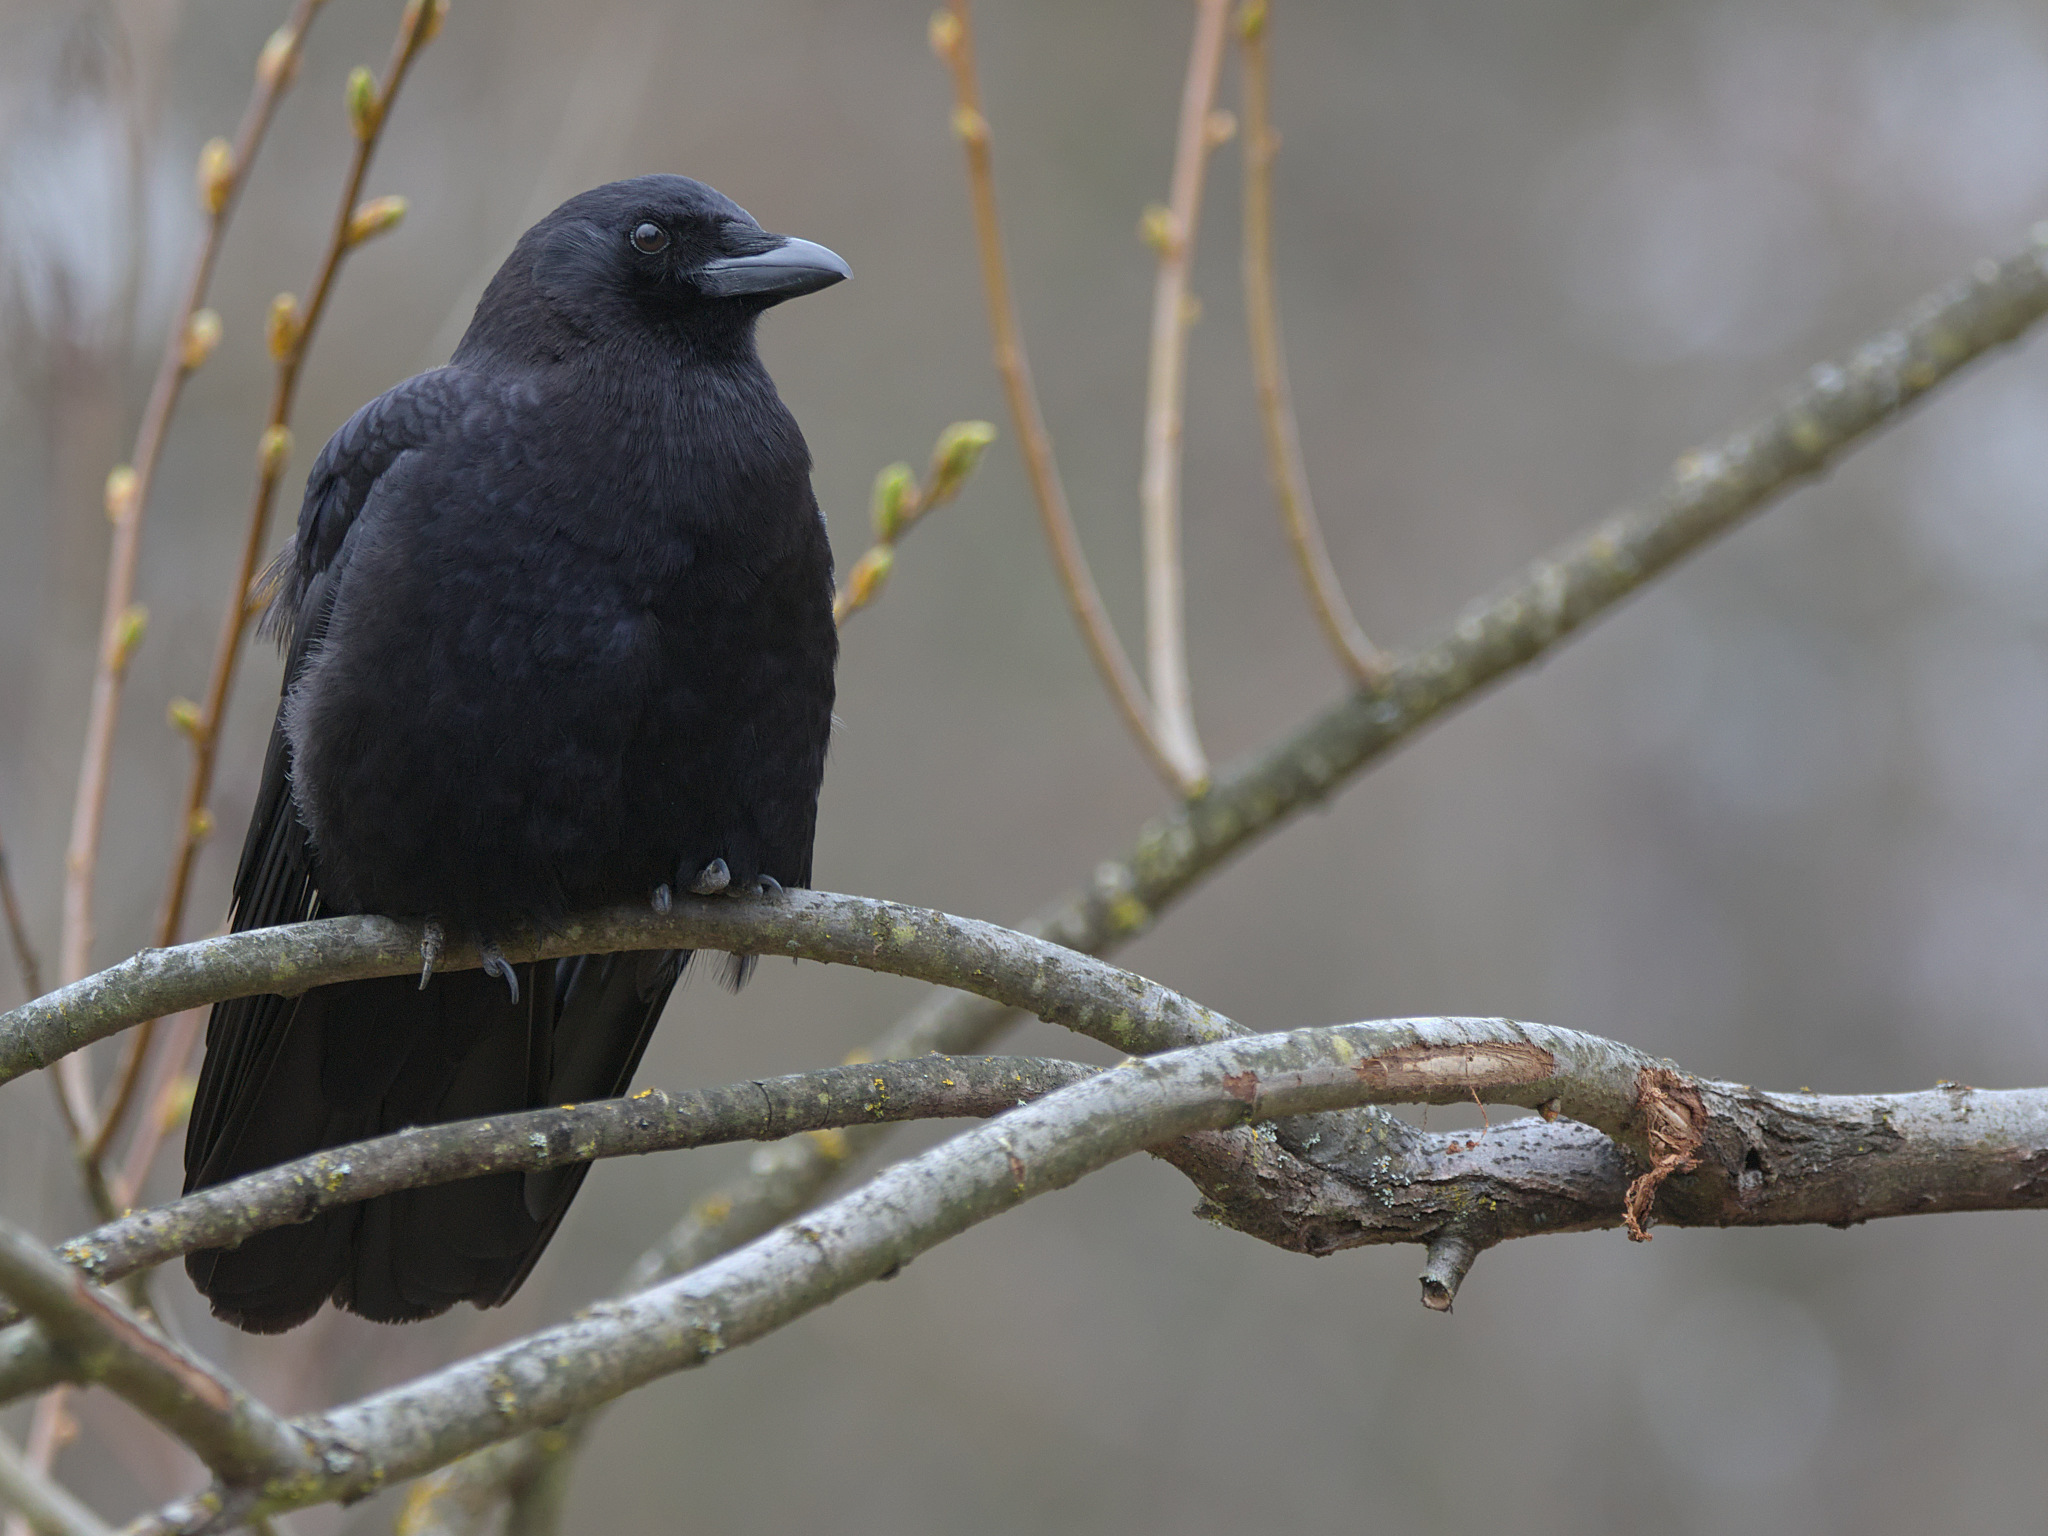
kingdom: Animalia
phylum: Chordata
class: Aves
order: Passeriformes
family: Corvidae
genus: Corvus
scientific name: Corvus brachyrhynchos
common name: American crow
